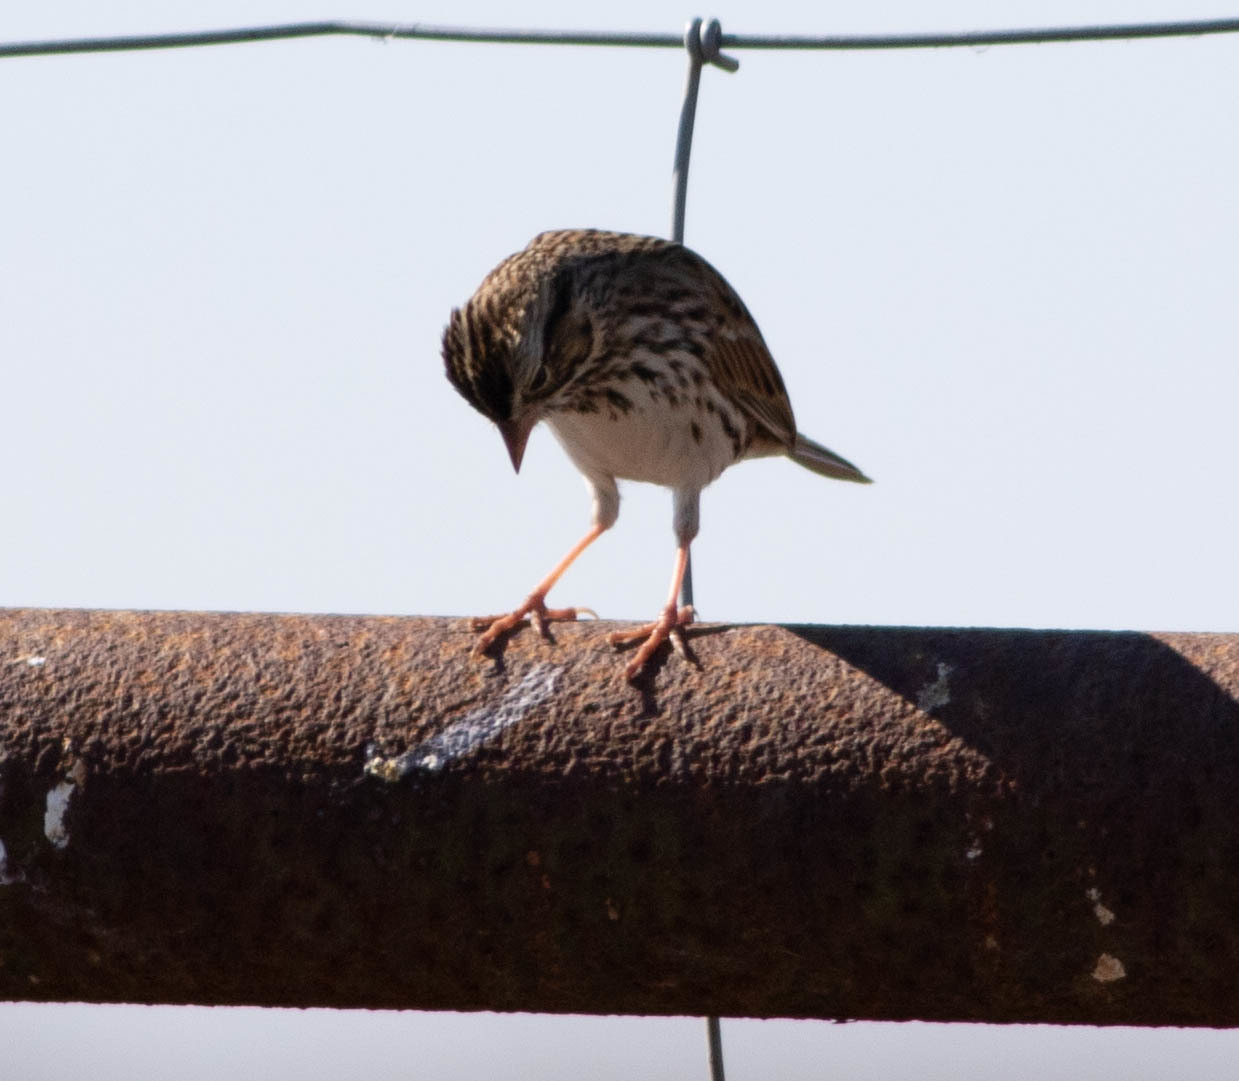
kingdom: Animalia
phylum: Chordata
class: Aves
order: Passeriformes
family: Passerellidae
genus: Passerculus
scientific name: Passerculus sandwichensis
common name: Savannah sparrow
